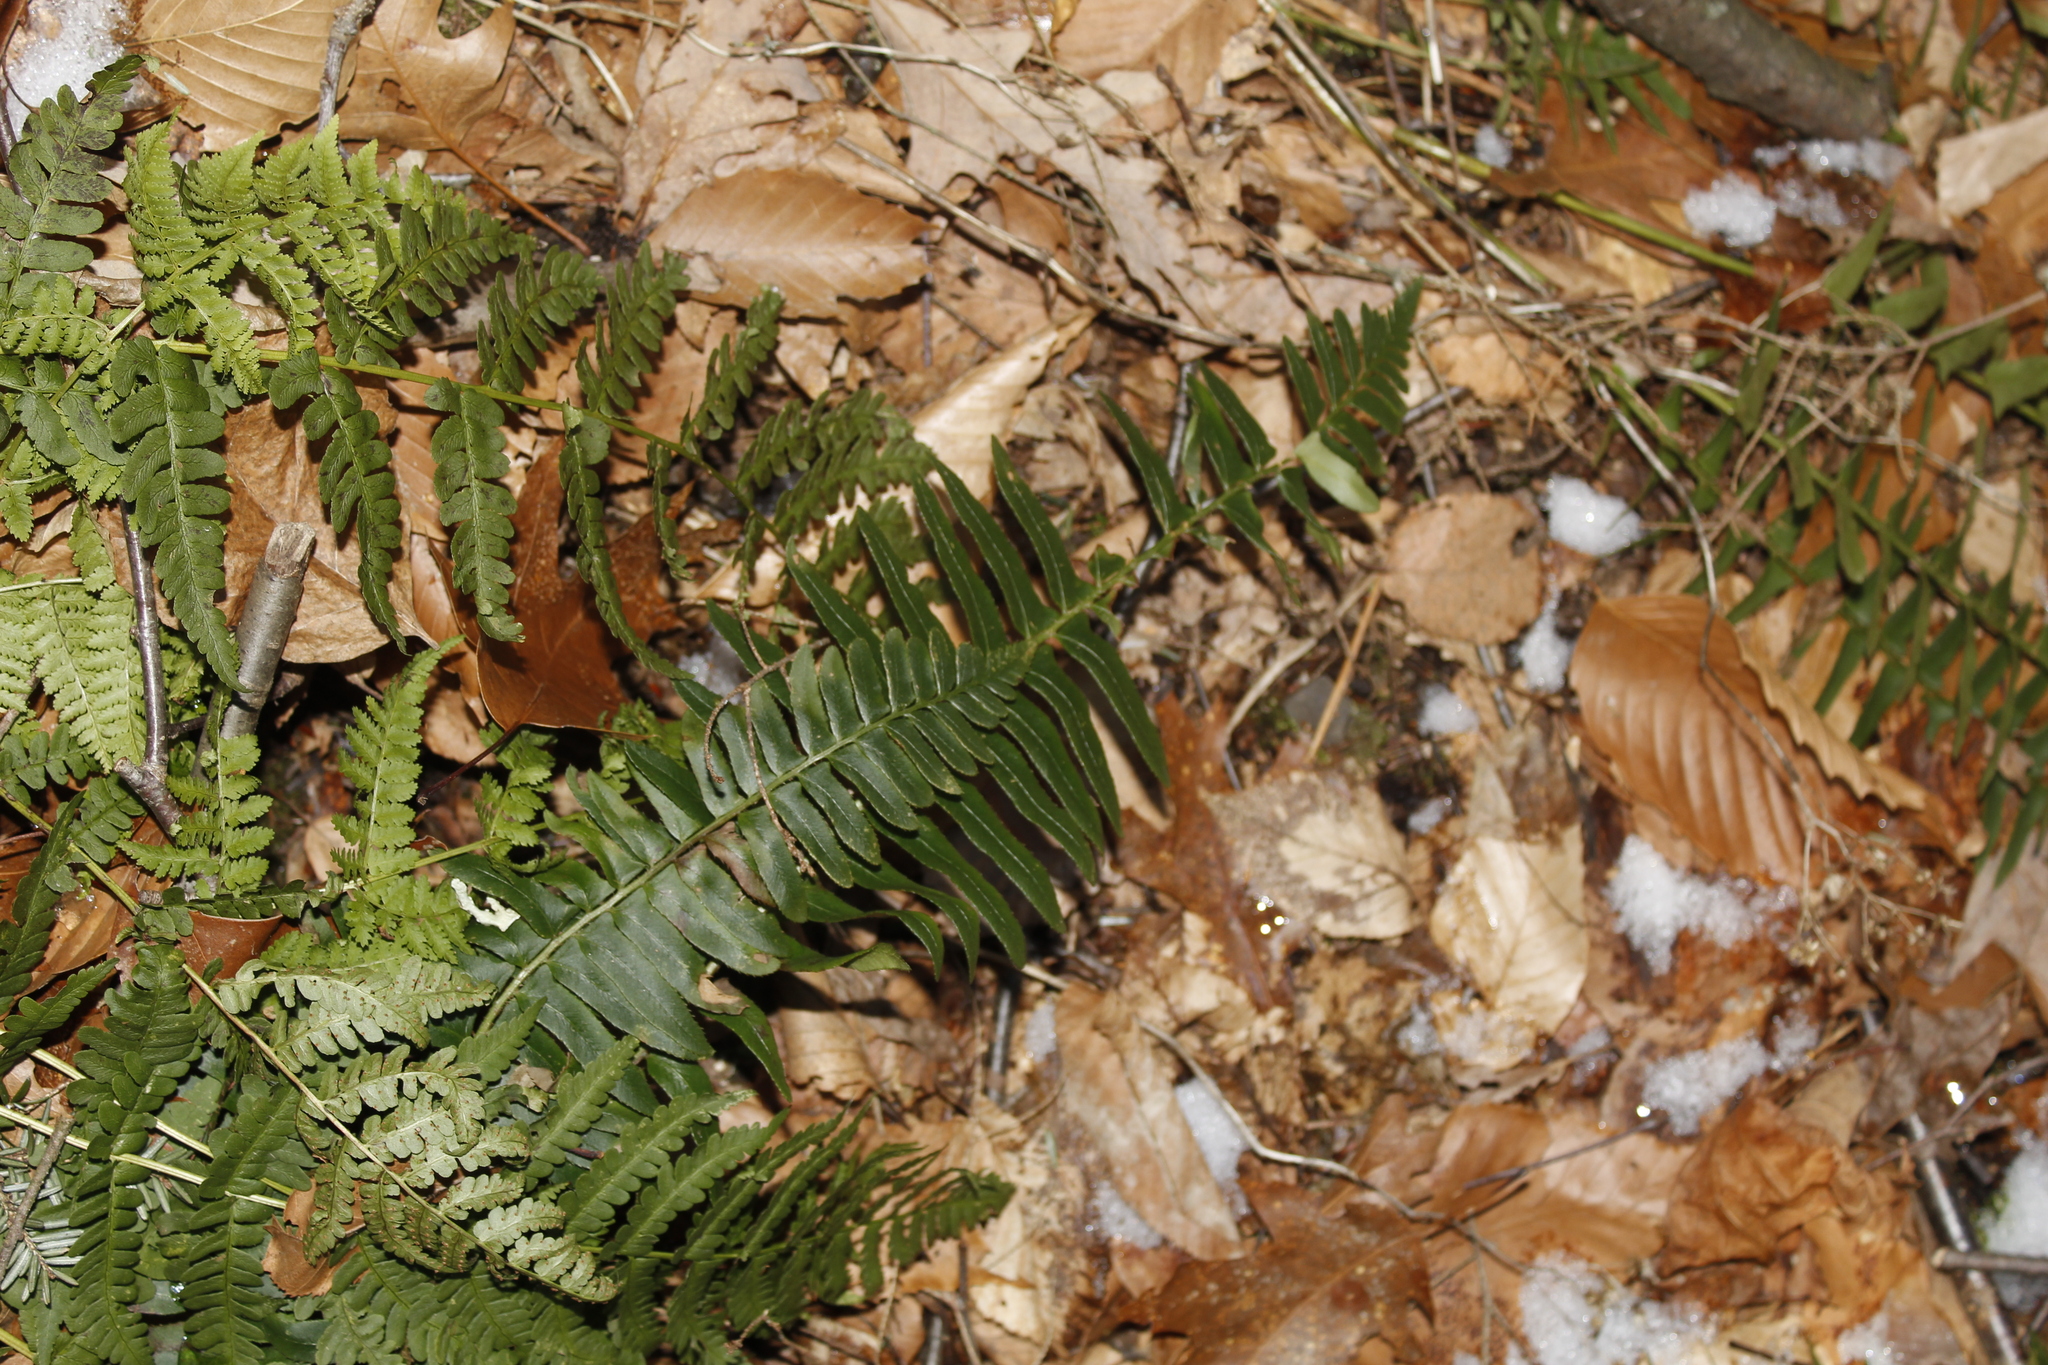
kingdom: Plantae
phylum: Tracheophyta
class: Polypodiopsida
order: Polypodiales
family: Dryopteridaceae
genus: Polystichum
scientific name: Polystichum acrostichoides
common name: Christmas fern
